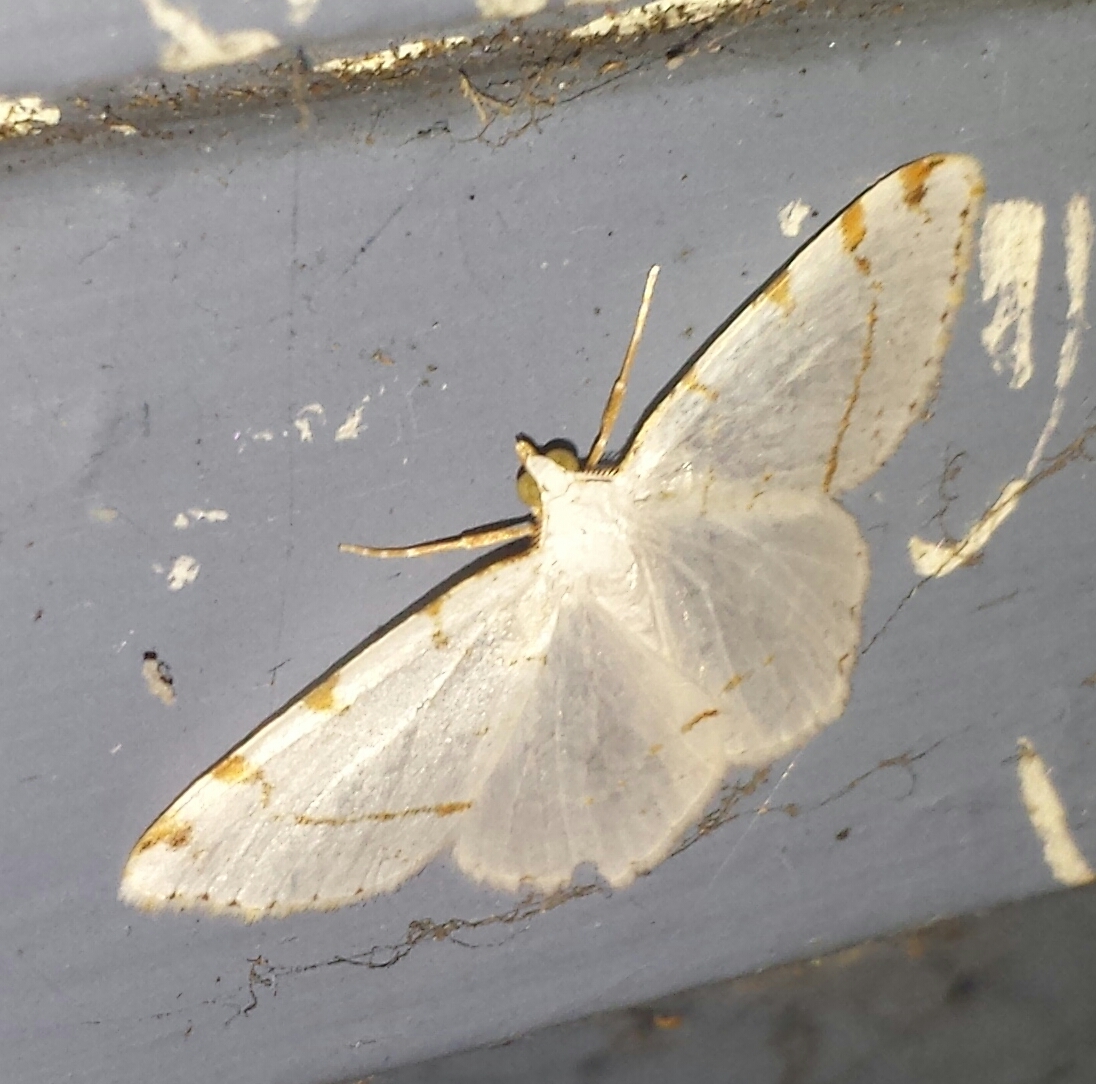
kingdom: Animalia
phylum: Arthropoda
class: Insecta
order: Lepidoptera
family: Geometridae
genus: Macaria
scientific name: Macaria pustularia
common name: Lesser maple spanworm moth
